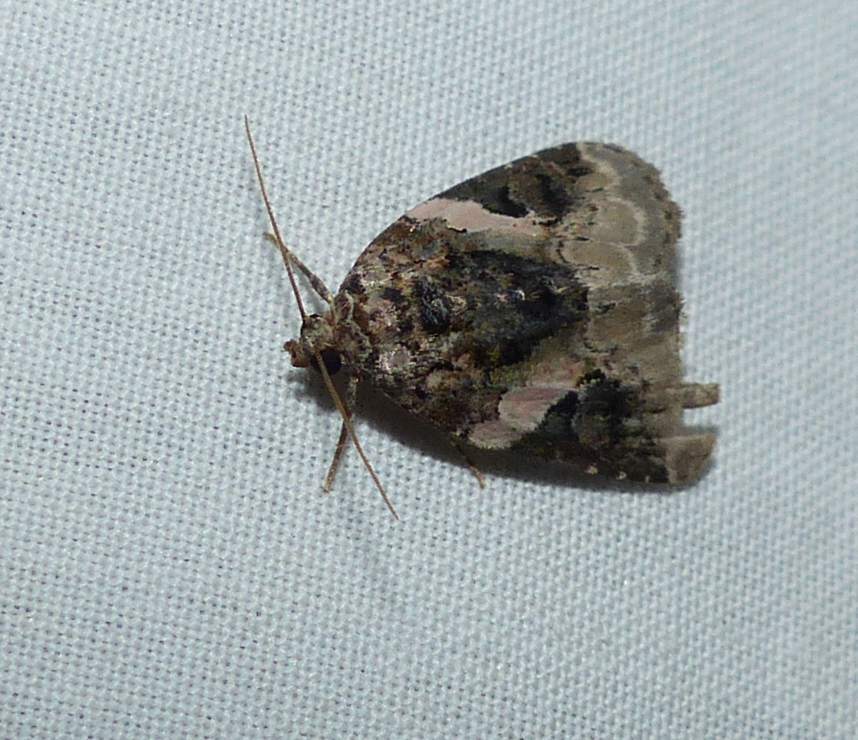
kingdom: Animalia
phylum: Arthropoda
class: Insecta
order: Lepidoptera
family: Noctuidae
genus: Pseudeustrotia
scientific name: Pseudeustrotia carneola
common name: Pink-barred lithacodia moth
